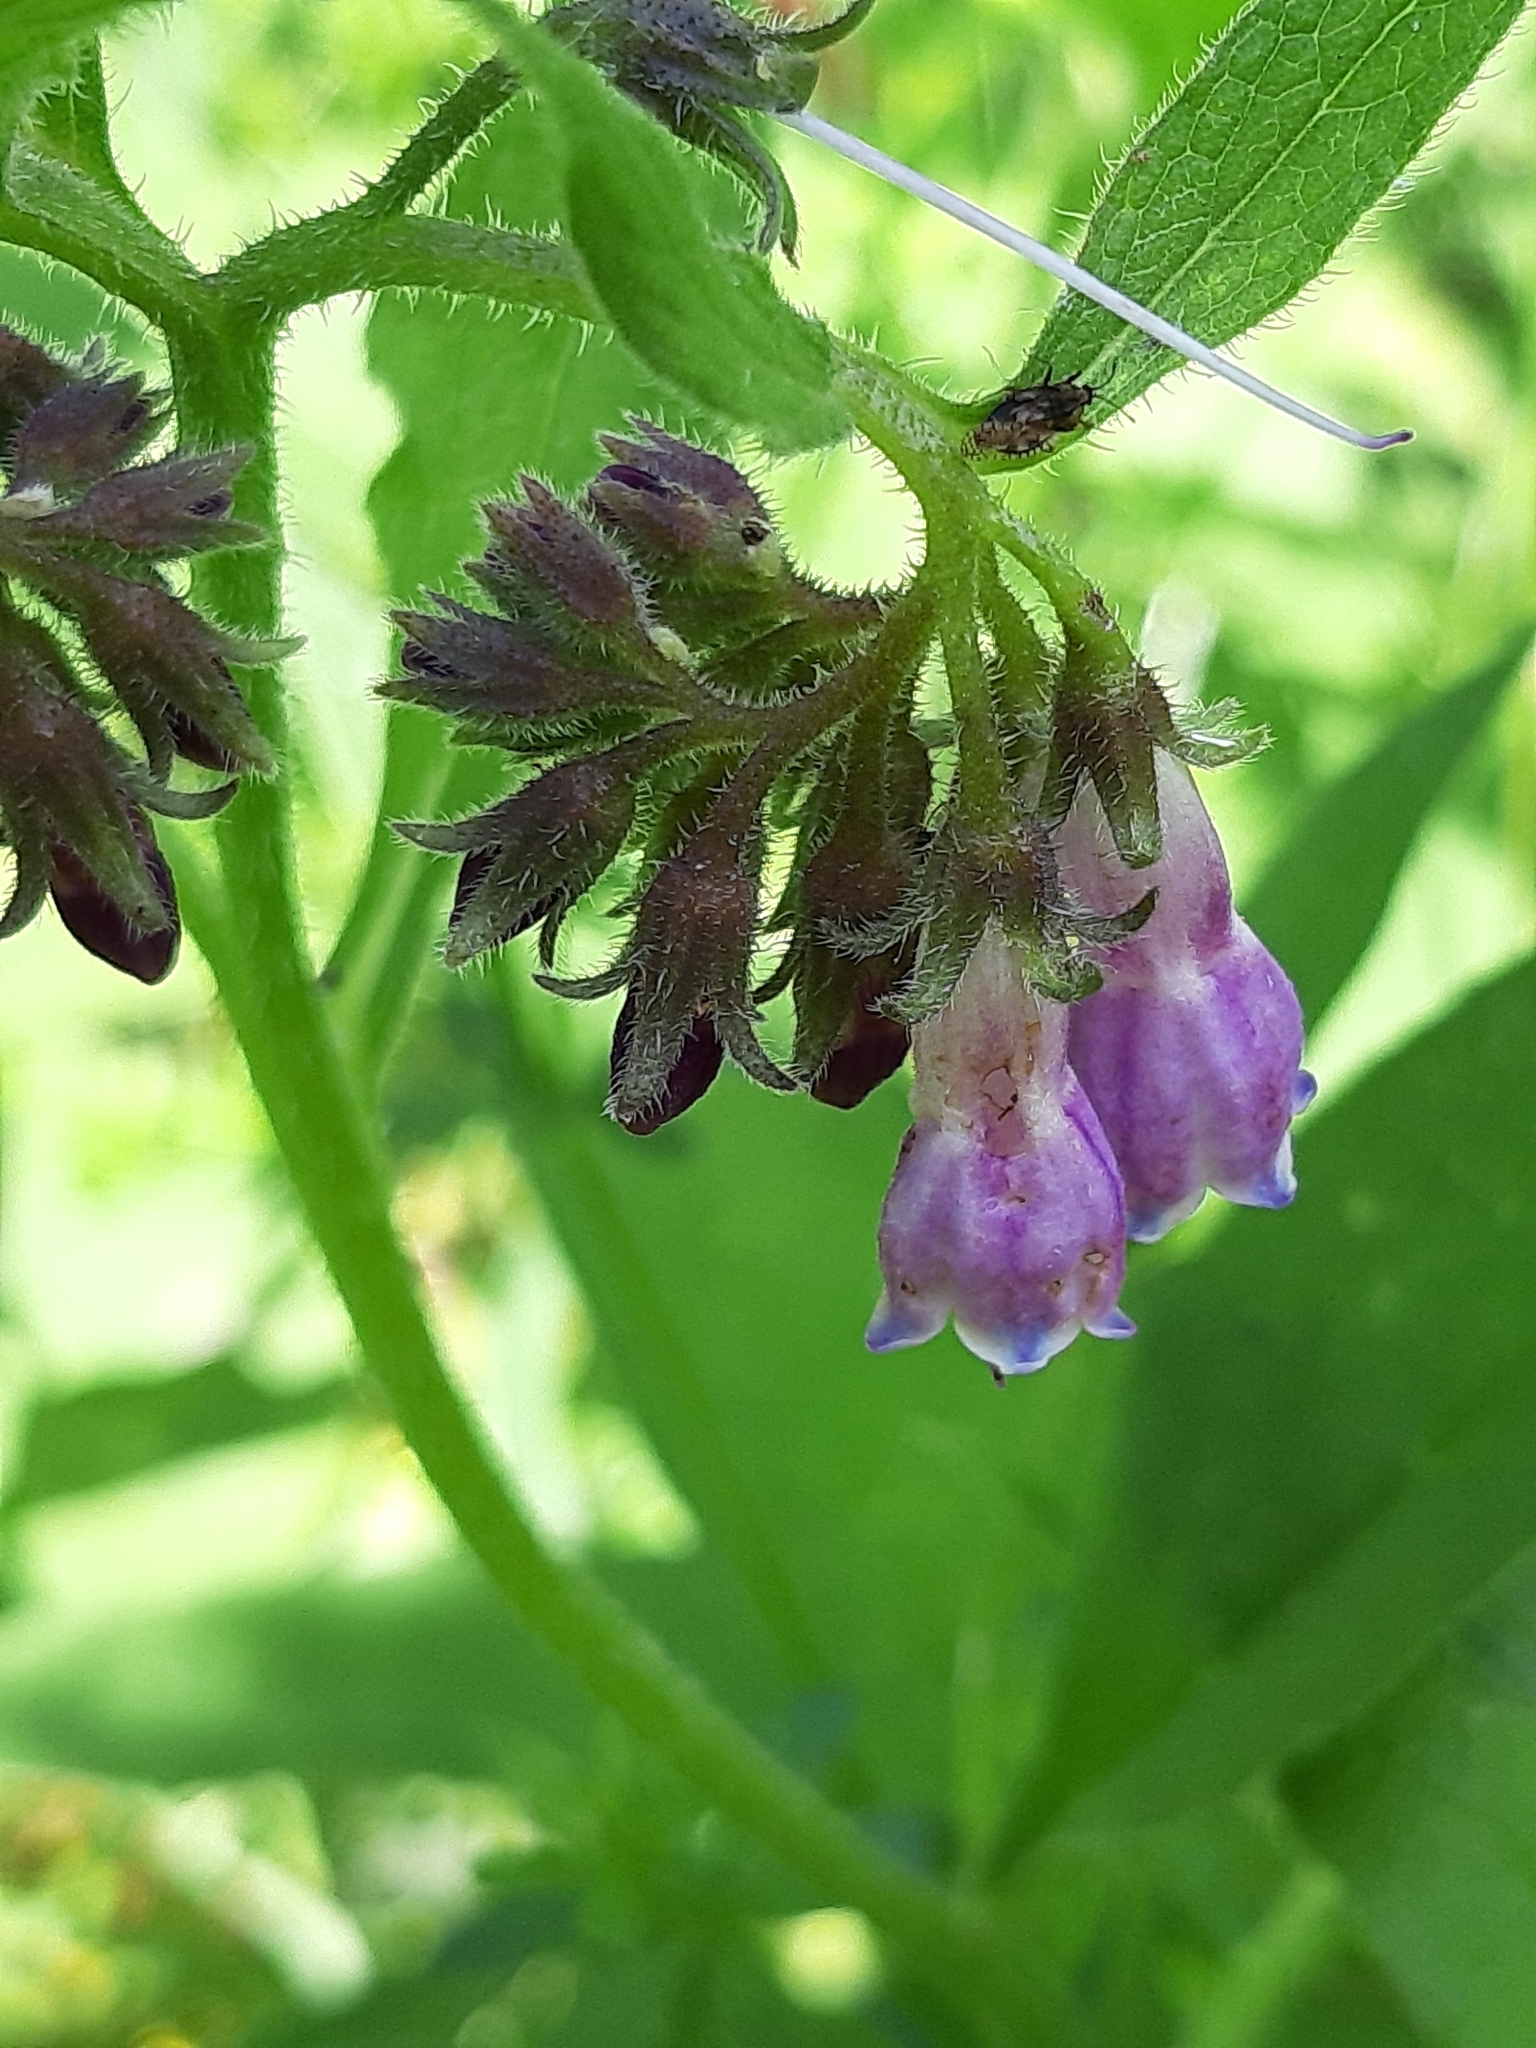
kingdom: Plantae
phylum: Tracheophyta
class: Magnoliopsida
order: Boraginales
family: Boraginaceae
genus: Symphytum
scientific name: Symphytum officinale
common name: Common comfrey
